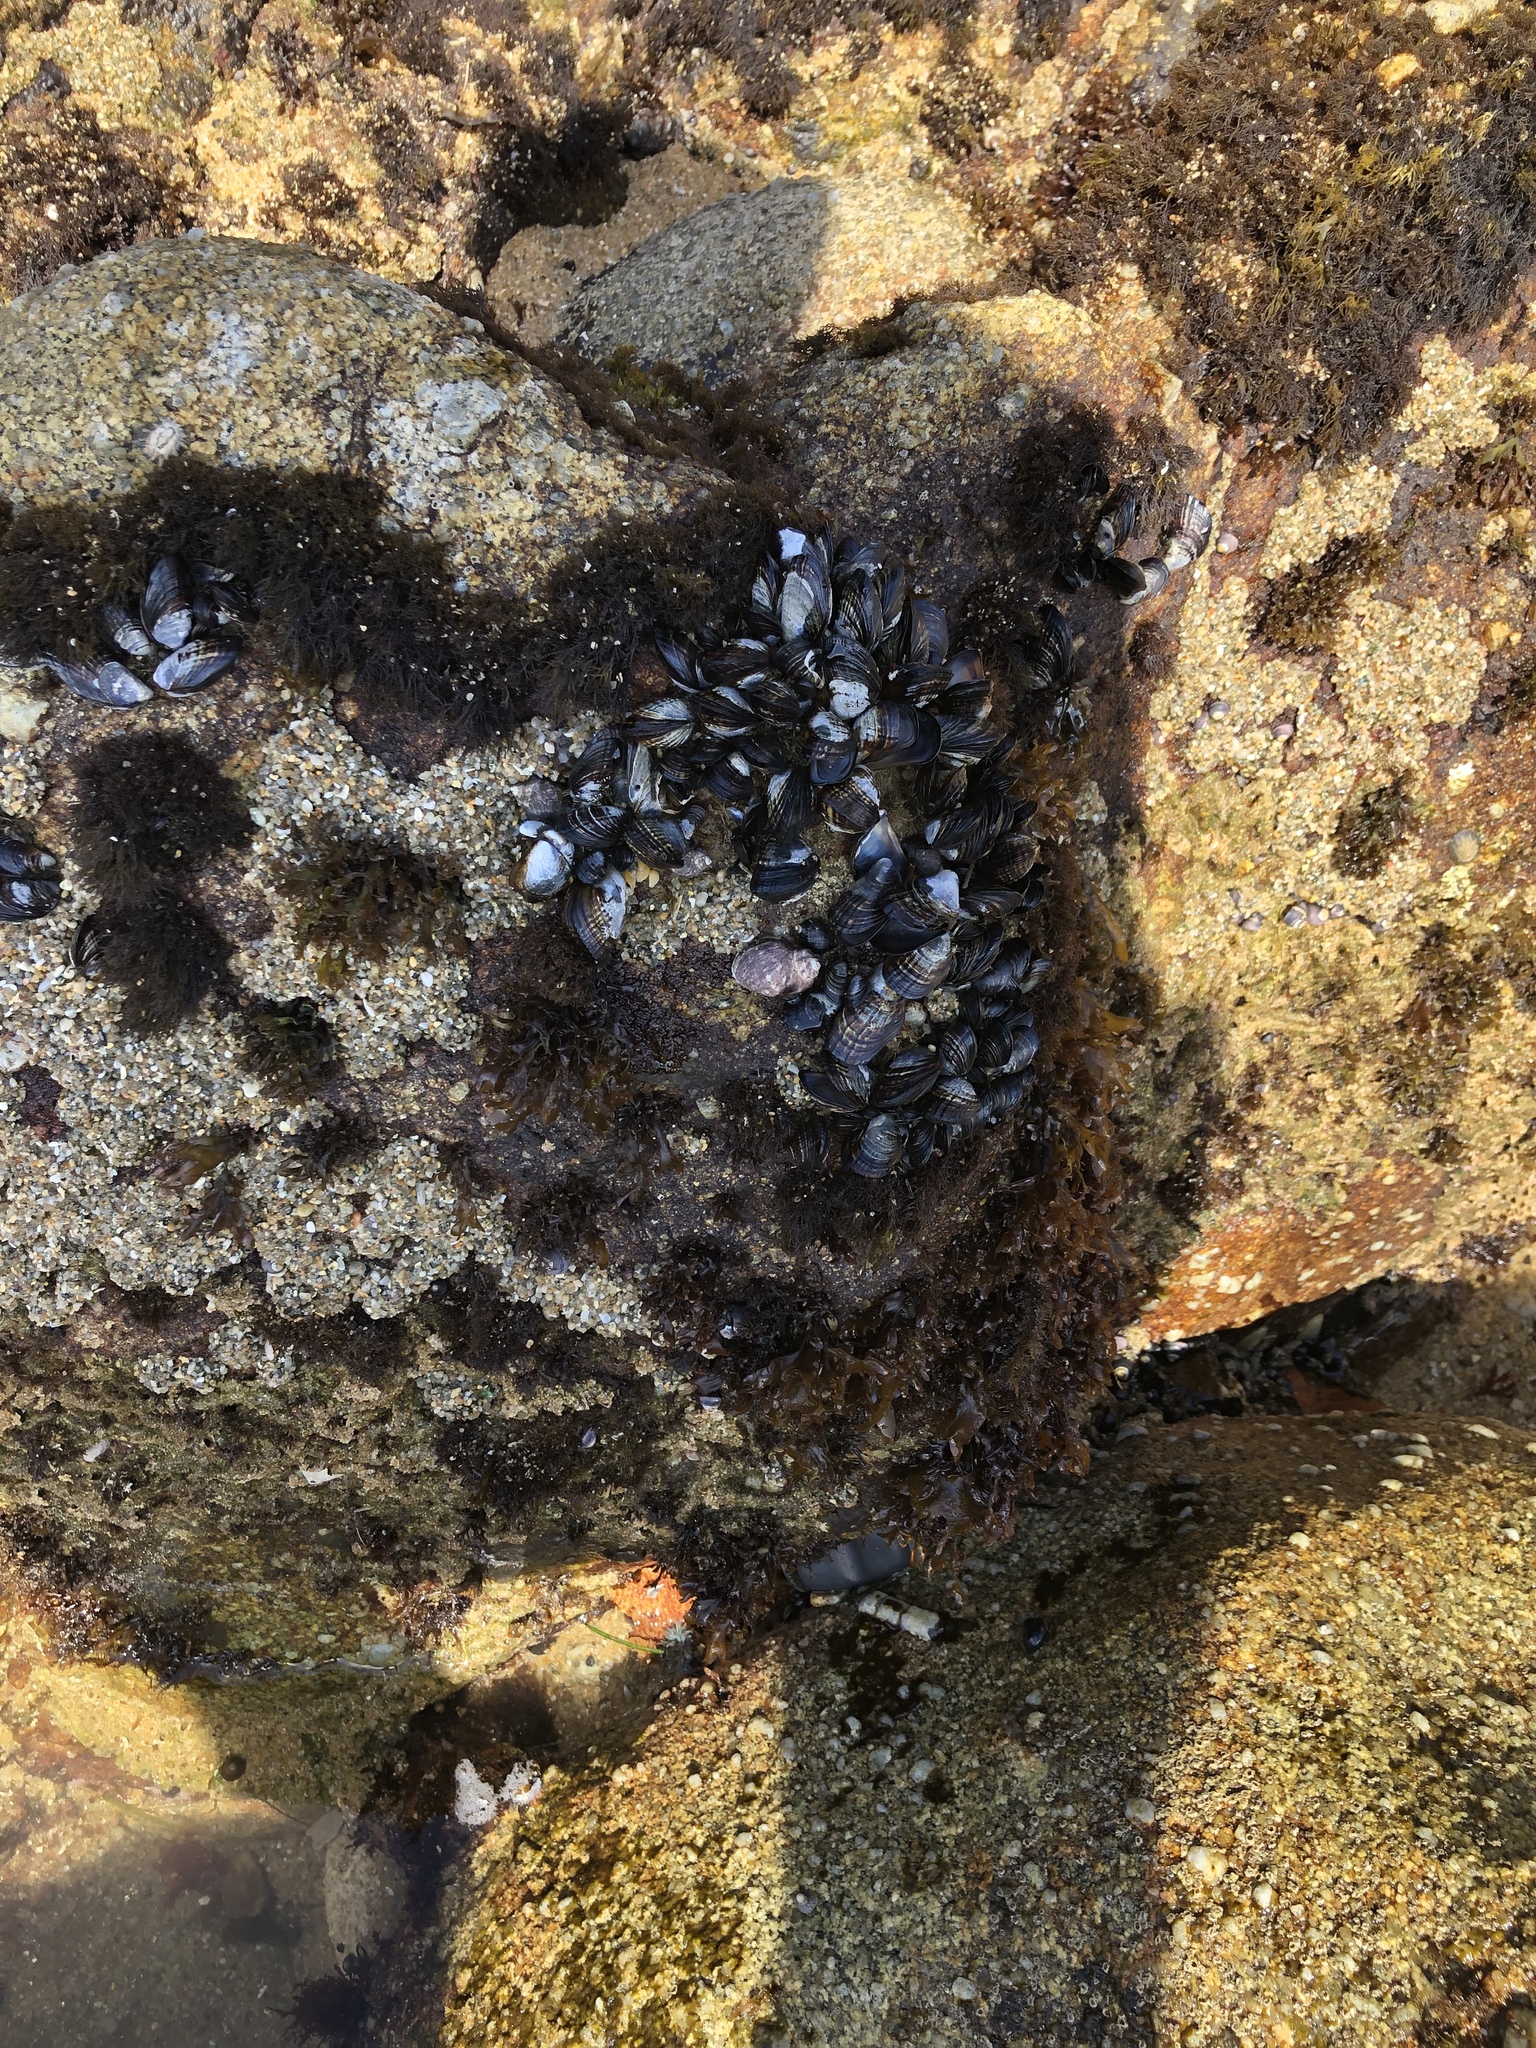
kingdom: Animalia
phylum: Mollusca
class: Bivalvia
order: Mytilida
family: Mytilidae
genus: Mytilus
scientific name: Mytilus californianus
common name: California mussel
